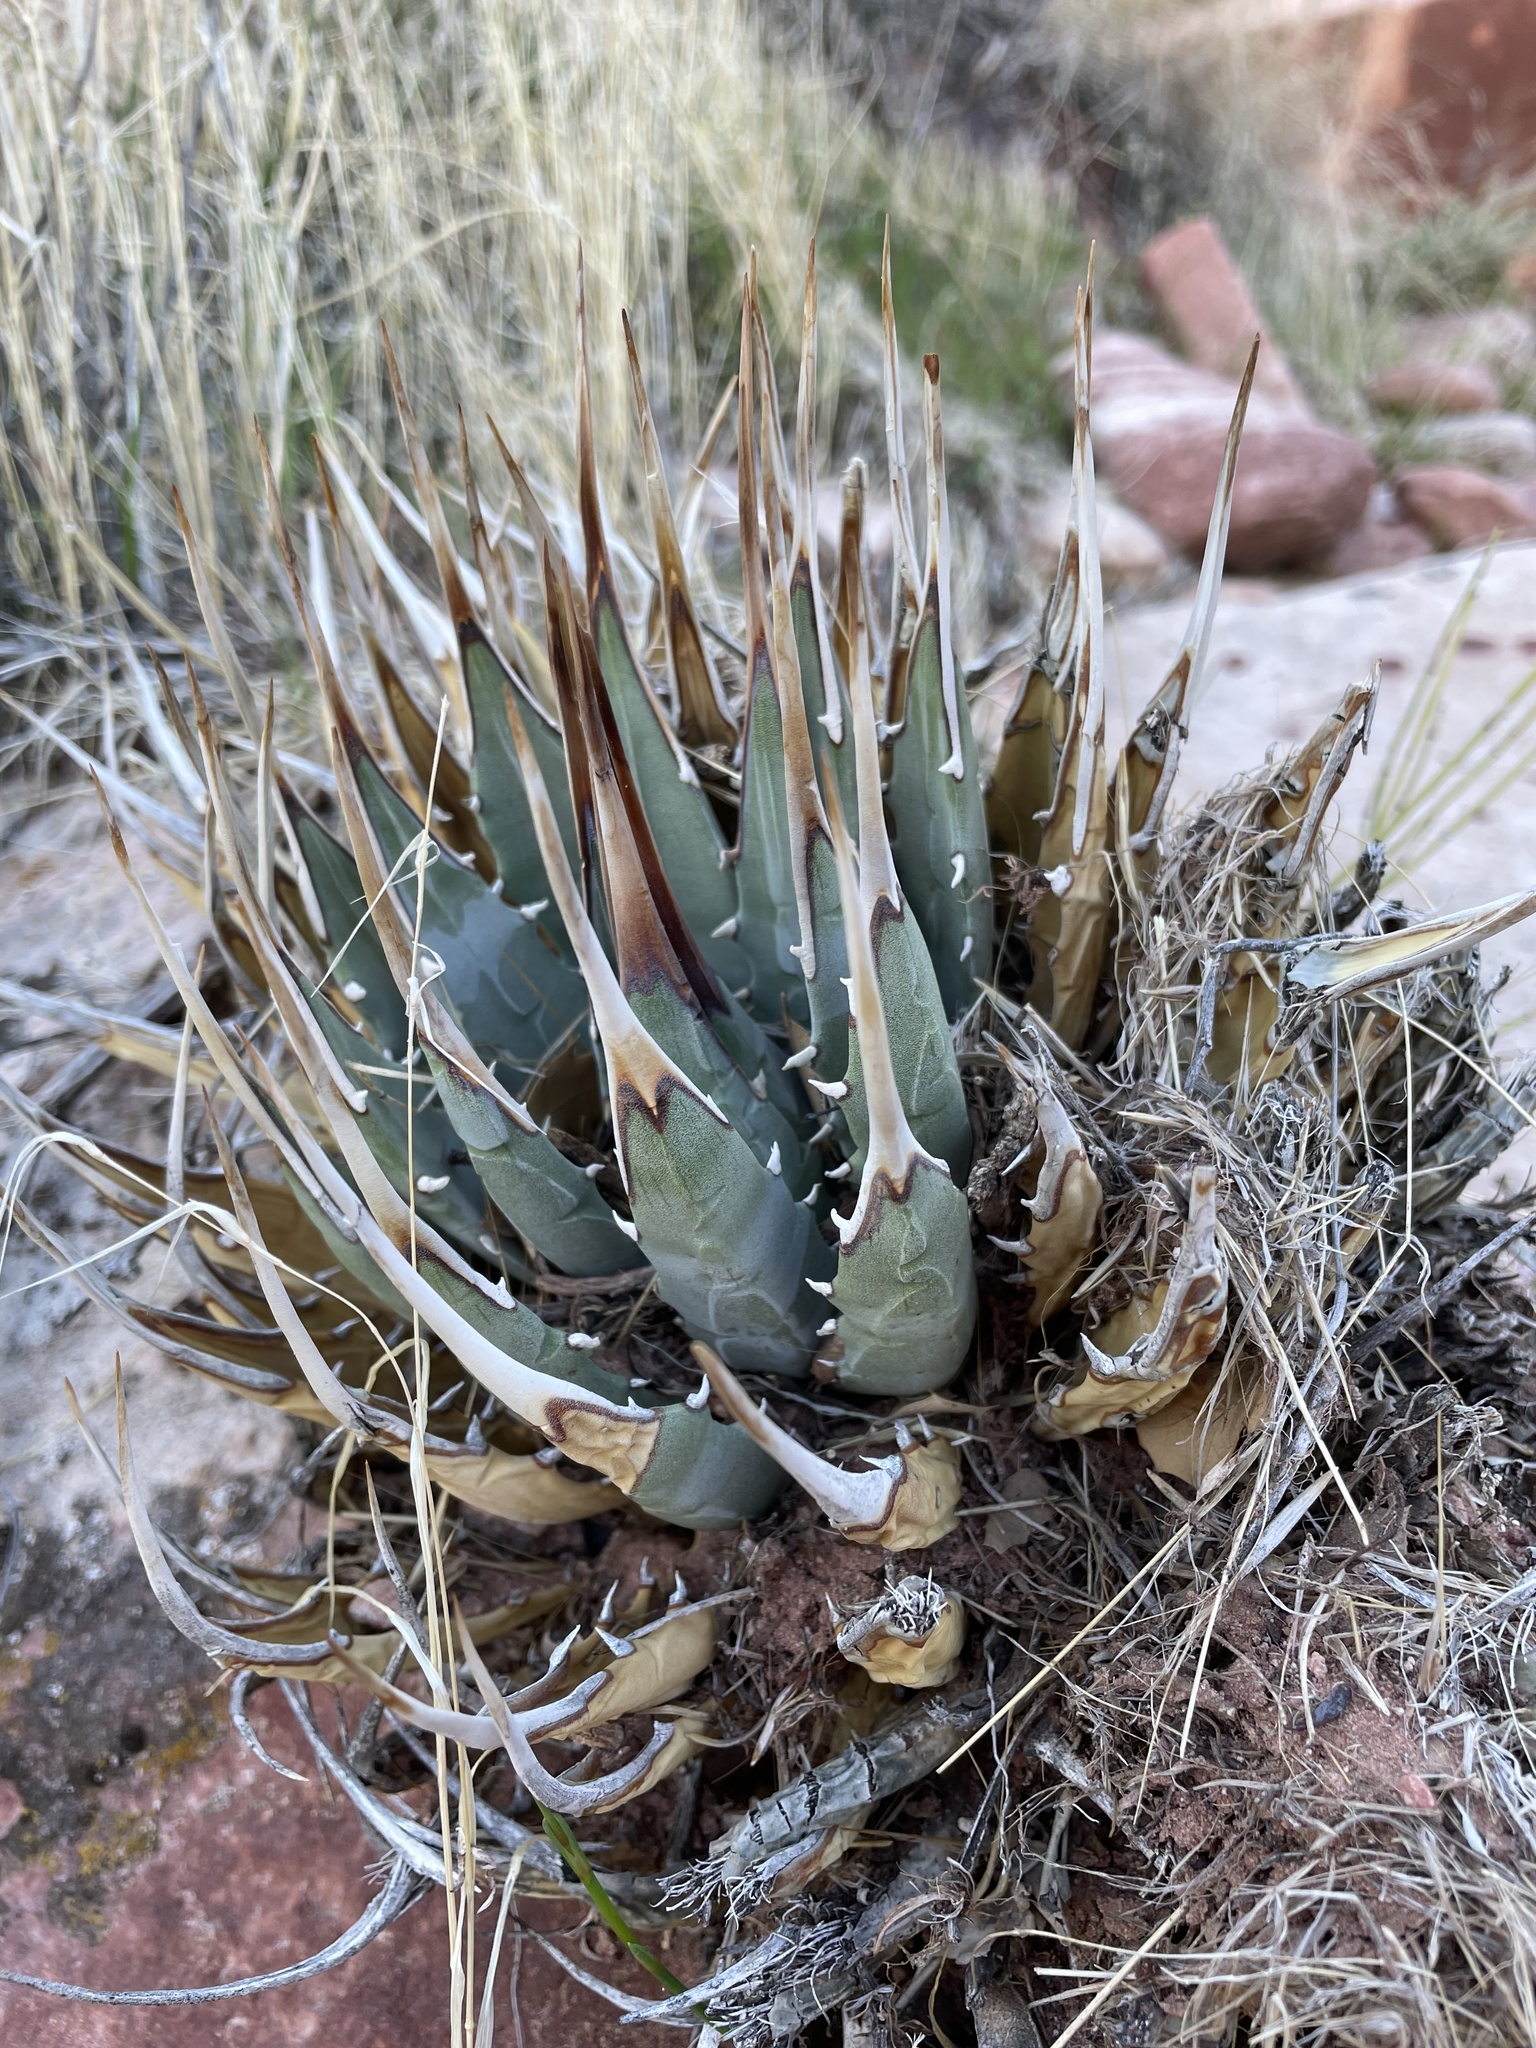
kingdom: Plantae
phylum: Tracheophyta
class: Liliopsida
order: Asparagales
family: Asparagaceae
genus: Agave
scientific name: Agave utahensis
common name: Utah agave
